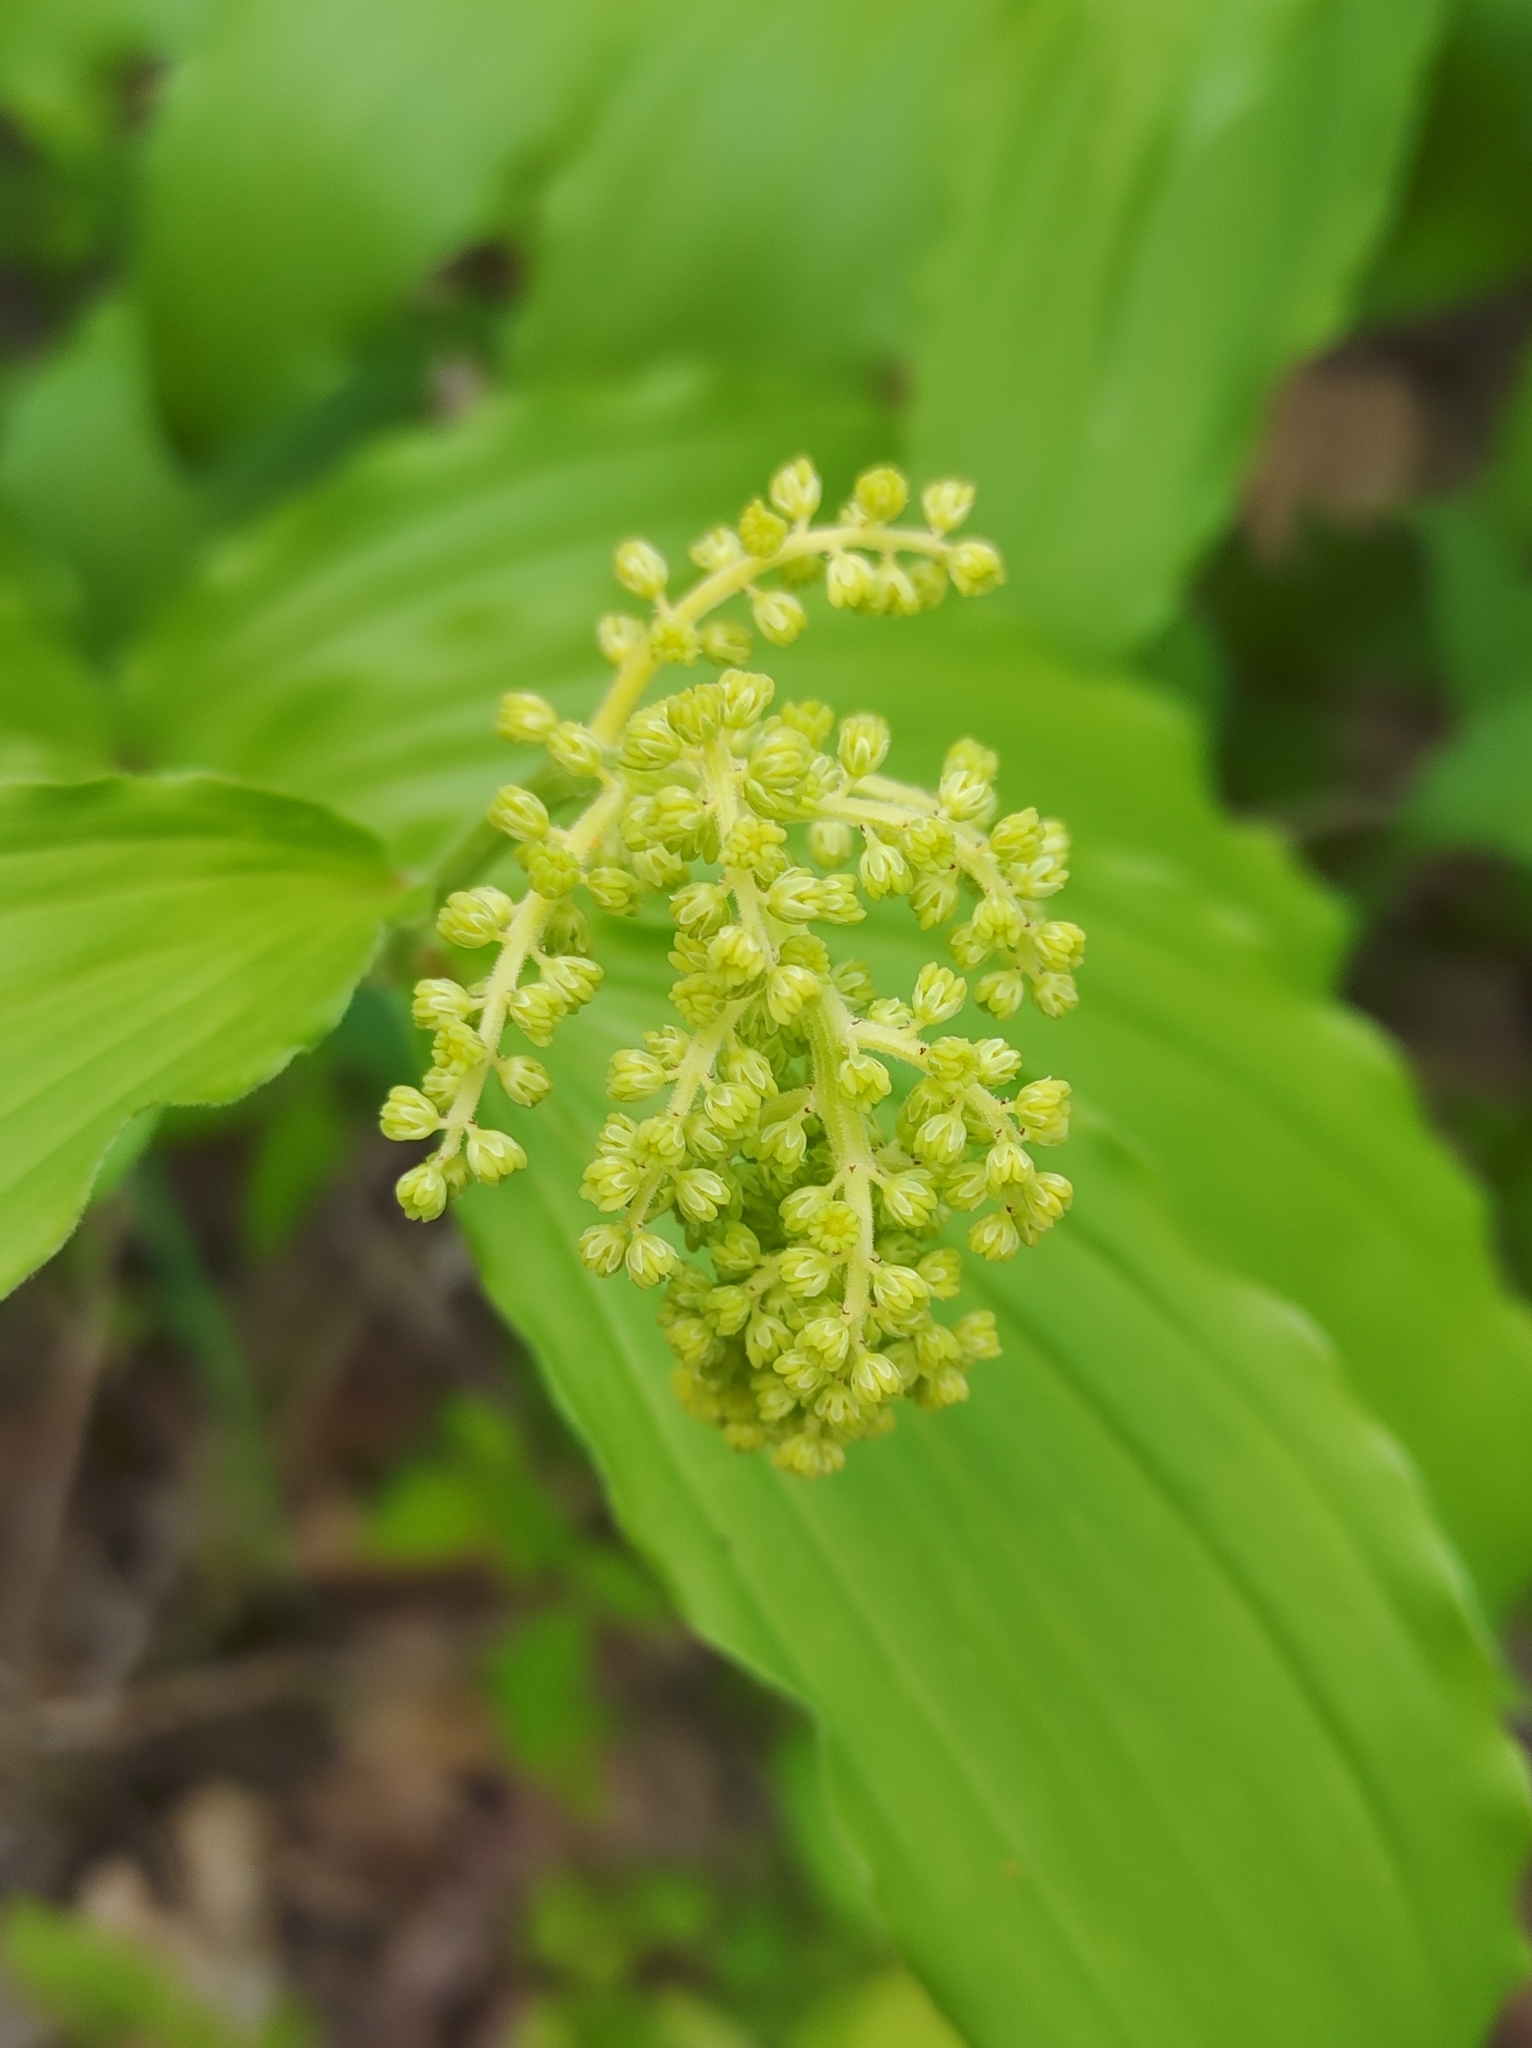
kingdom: Plantae
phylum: Tracheophyta
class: Liliopsida
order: Asparagales
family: Asparagaceae
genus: Maianthemum
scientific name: Maianthemum racemosum
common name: False spikenard
